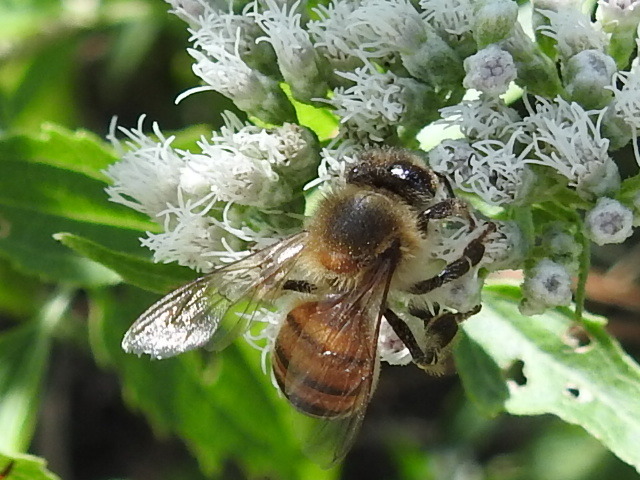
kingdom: Animalia
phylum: Arthropoda
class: Insecta
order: Hymenoptera
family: Apidae
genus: Apis
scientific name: Apis mellifera
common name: Honey bee
